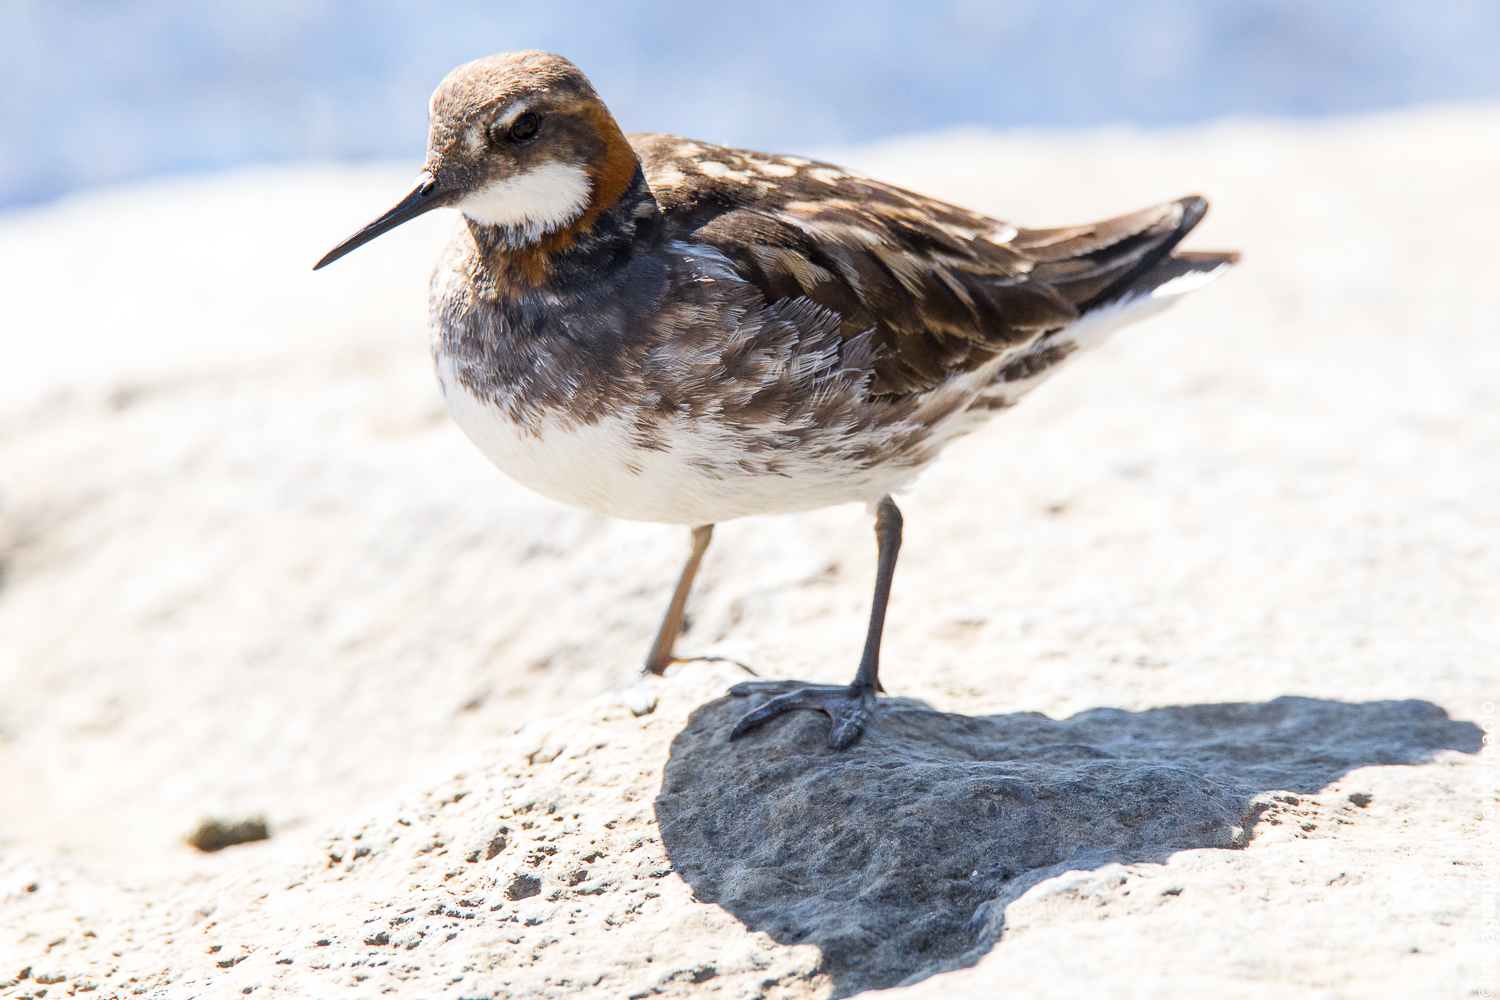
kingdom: Animalia
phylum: Chordata
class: Aves
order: Charadriiformes
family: Scolopacidae
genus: Phalaropus
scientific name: Phalaropus lobatus
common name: Red-necked phalarope
